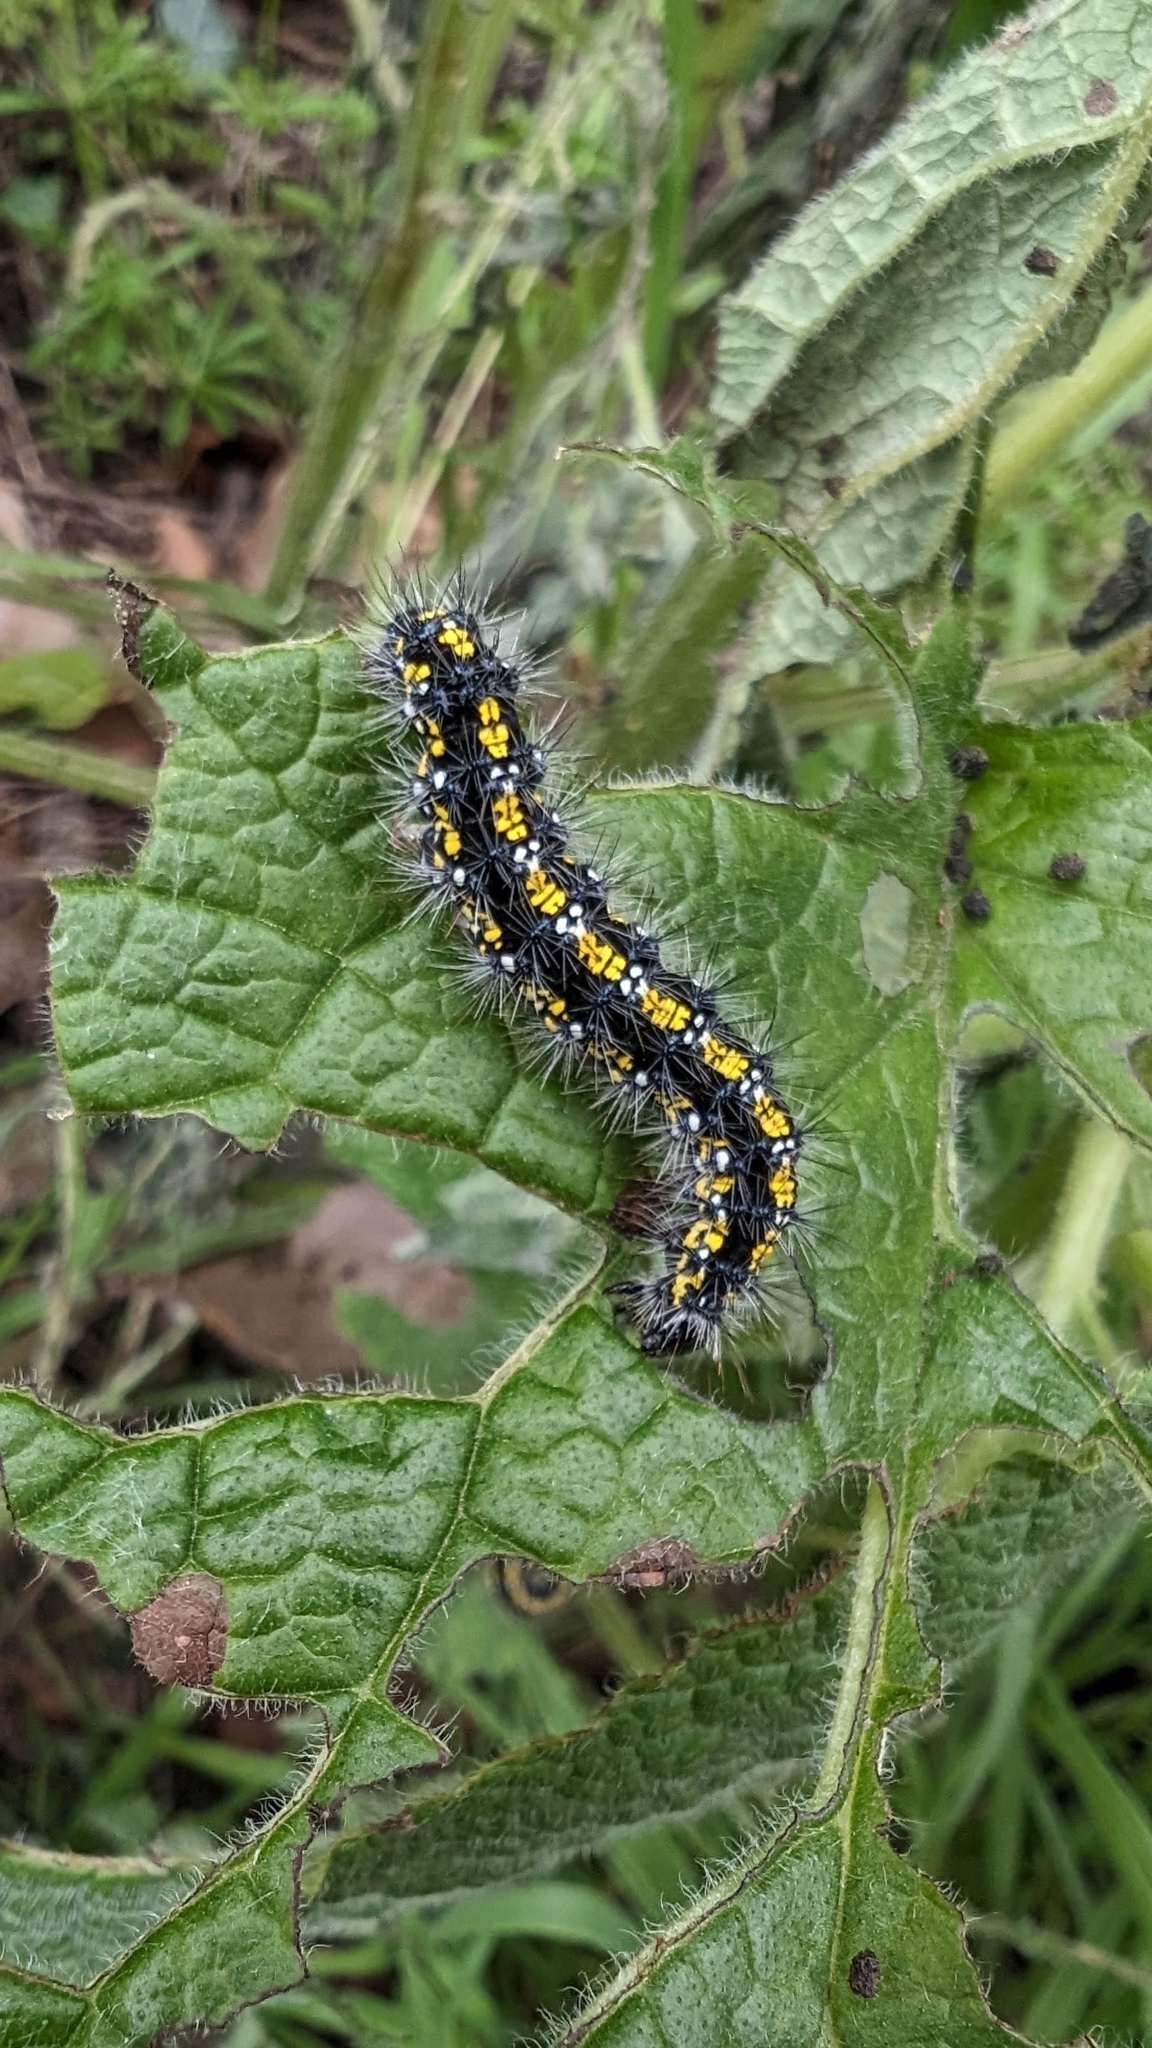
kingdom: Animalia
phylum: Arthropoda
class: Insecta
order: Lepidoptera
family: Erebidae
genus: Callimorpha
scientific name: Callimorpha dominula
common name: Scarlet tiger
